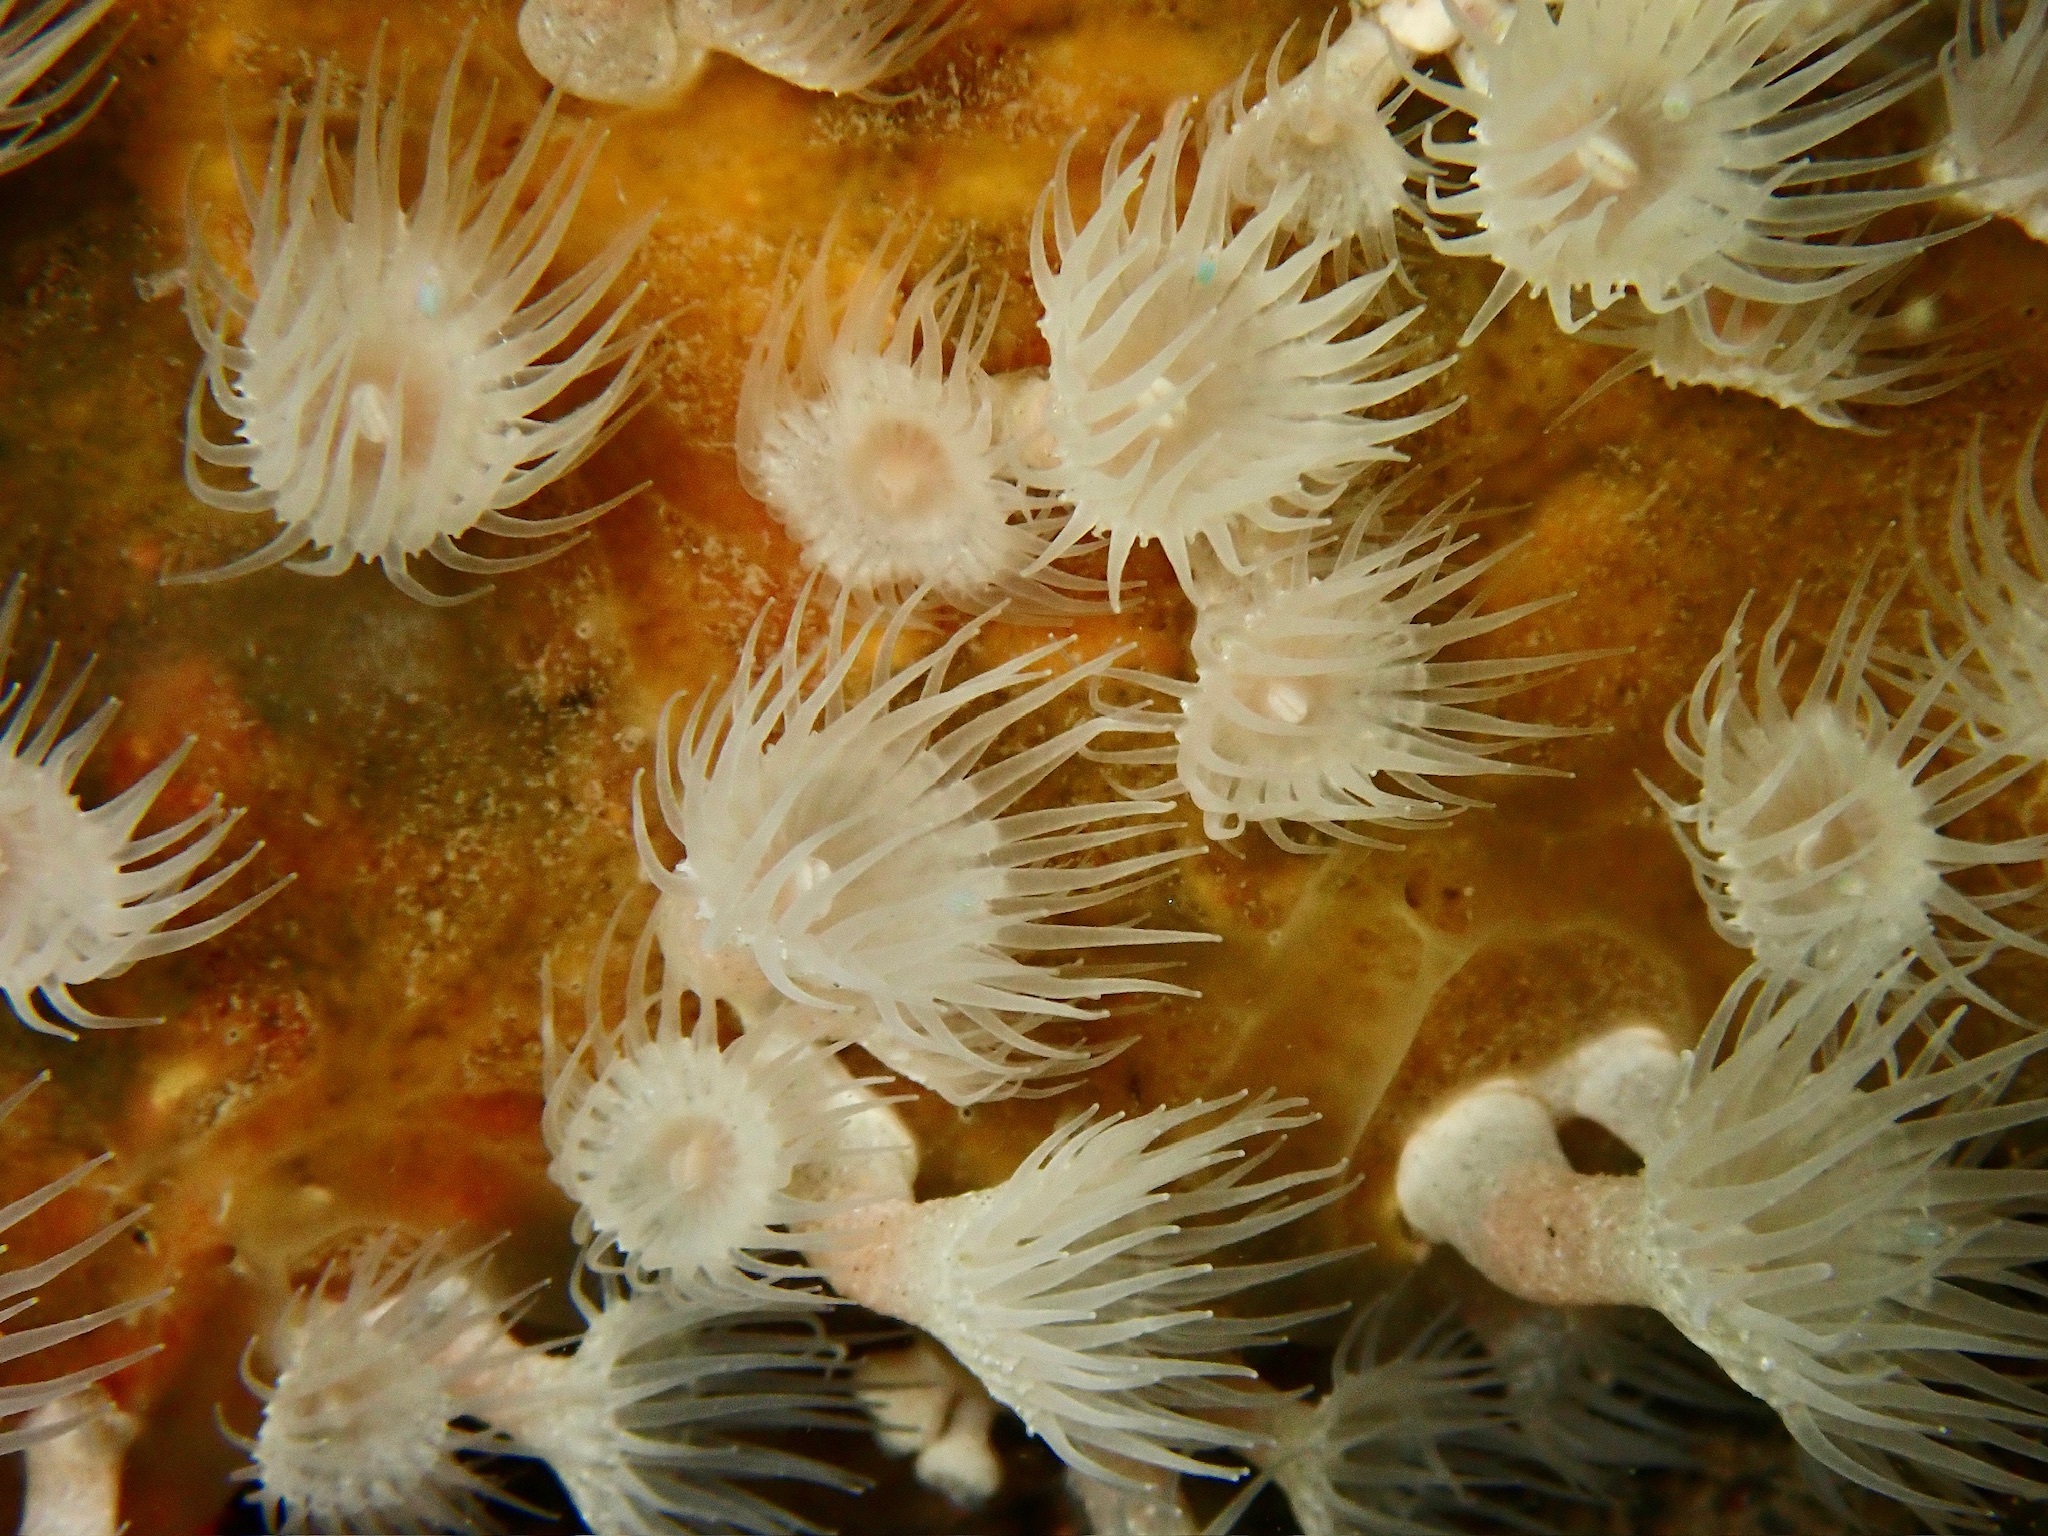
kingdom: Animalia
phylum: Cnidaria
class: Anthozoa
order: Zoantharia
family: Parazoanthidae
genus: Parazoanthus
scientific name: Parazoanthus anguicomus
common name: White cluster anemone
